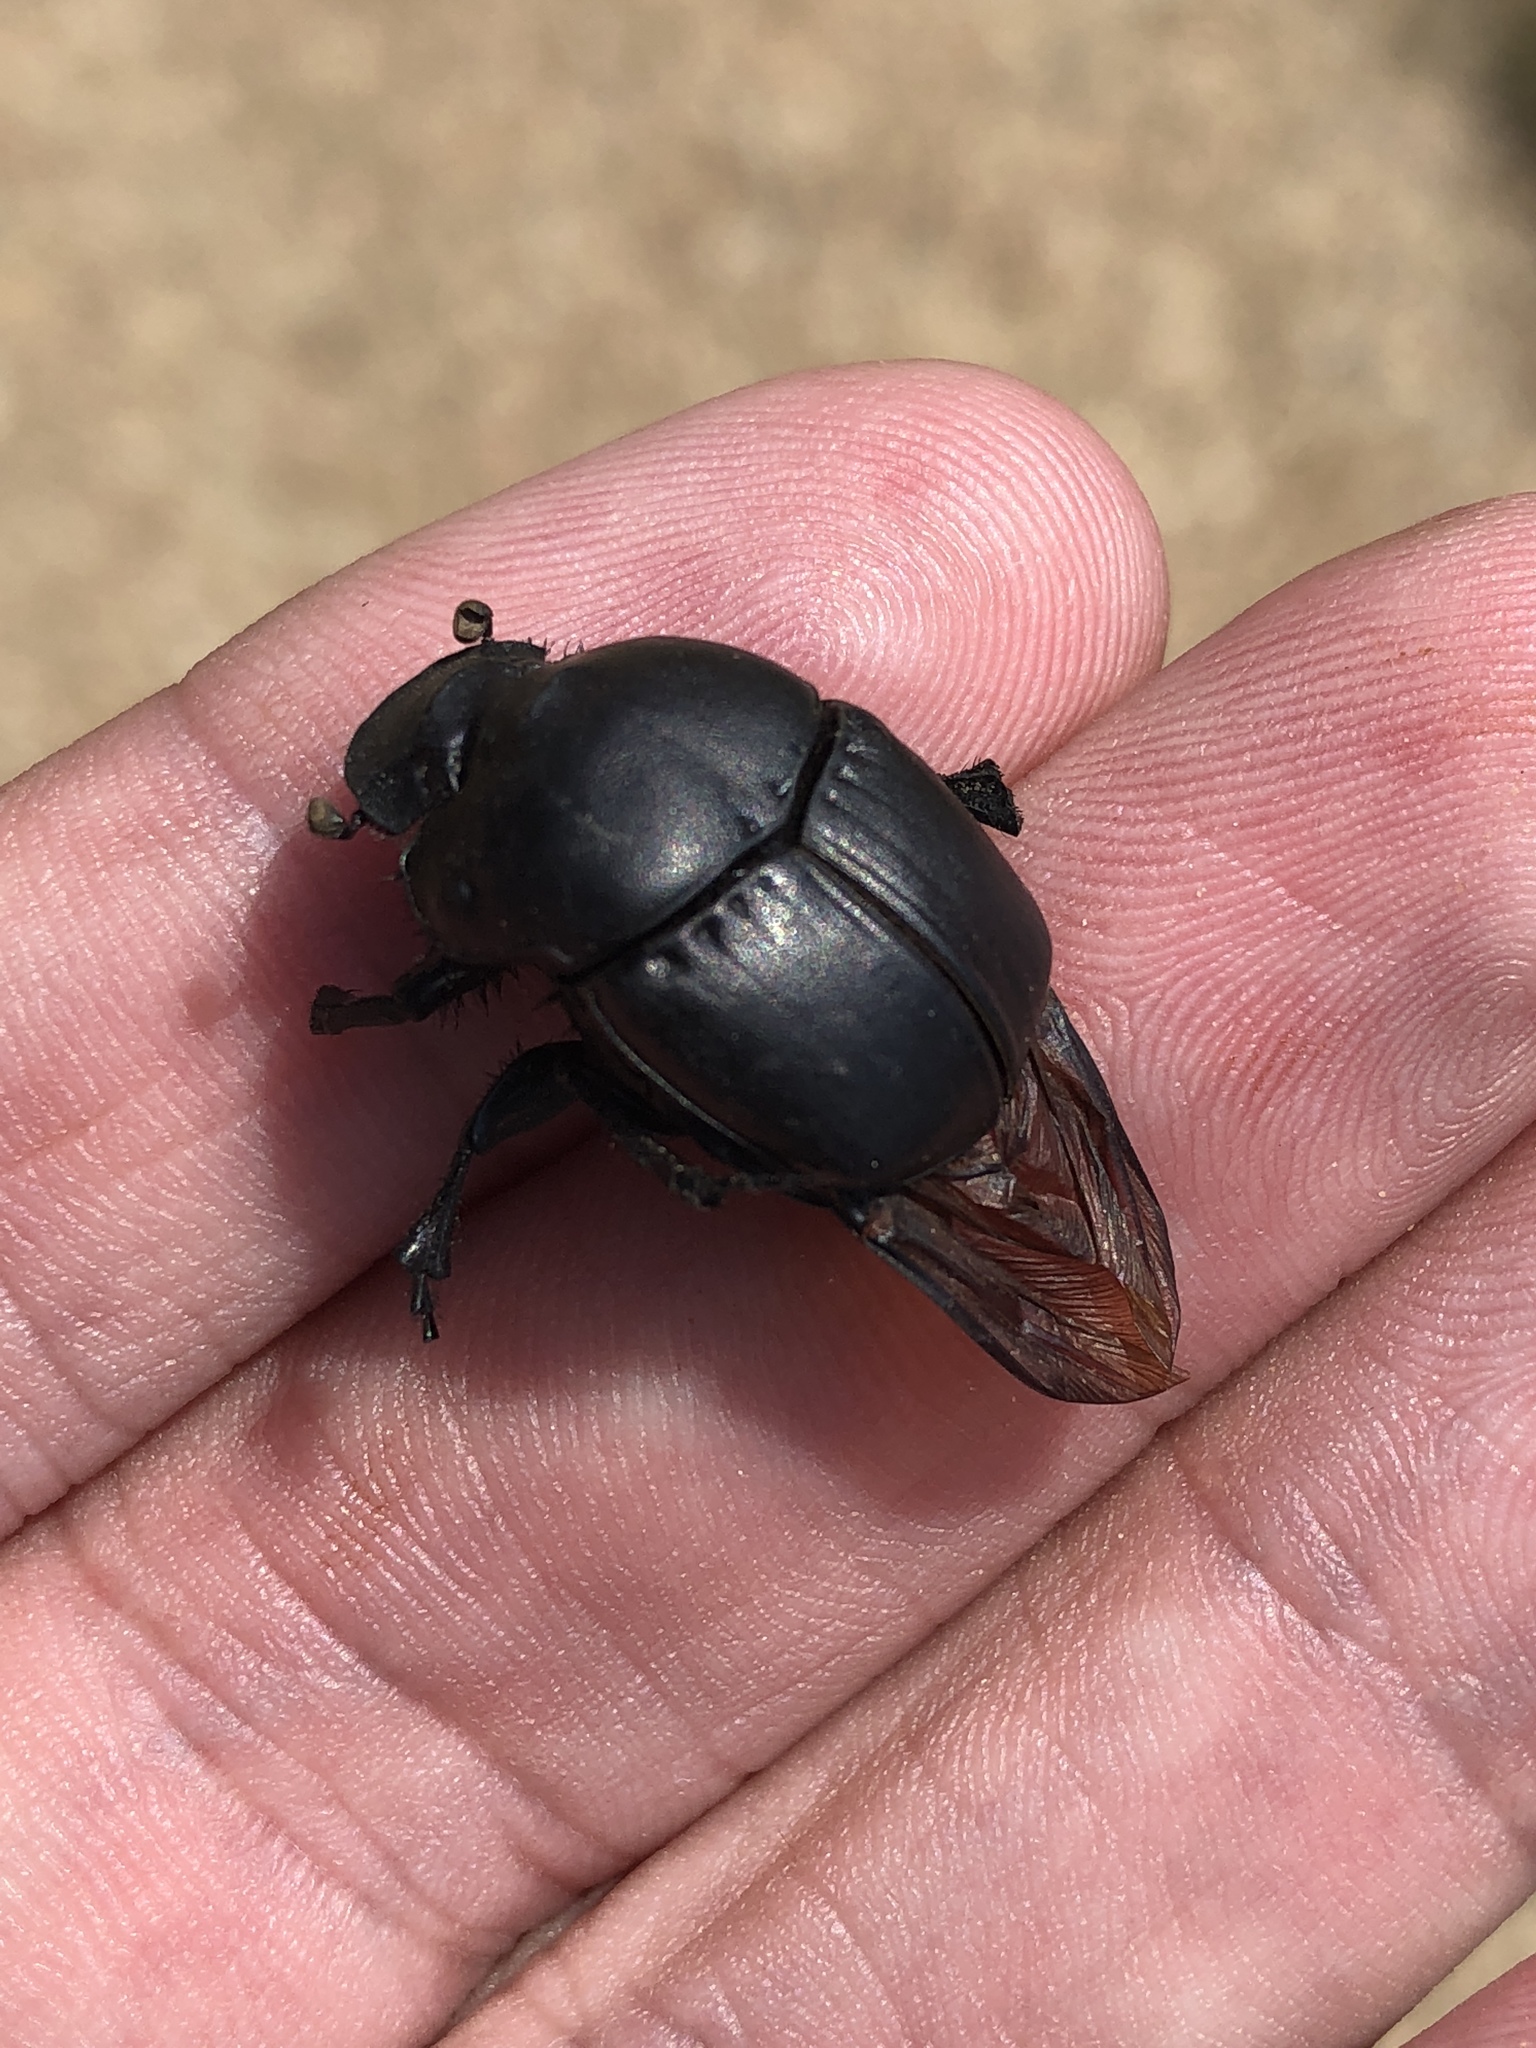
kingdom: Animalia
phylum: Arthropoda
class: Insecta
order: Coleoptera
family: Scarabaeidae
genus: Phanaeus
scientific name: Phanaeus texensis
